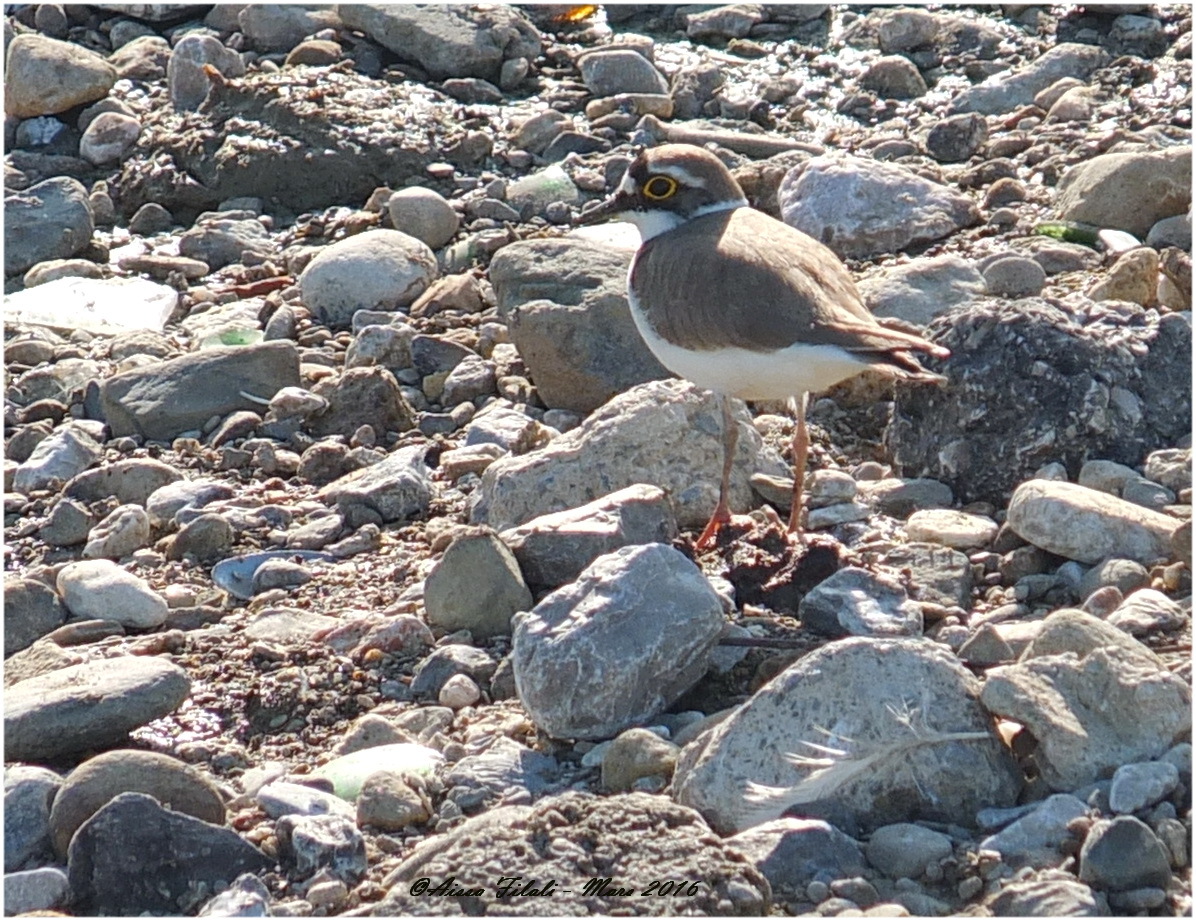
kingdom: Animalia
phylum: Chordata
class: Aves
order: Charadriiformes
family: Charadriidae
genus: Charadrius
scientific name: Charadrius dubius
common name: Little ringed plover
